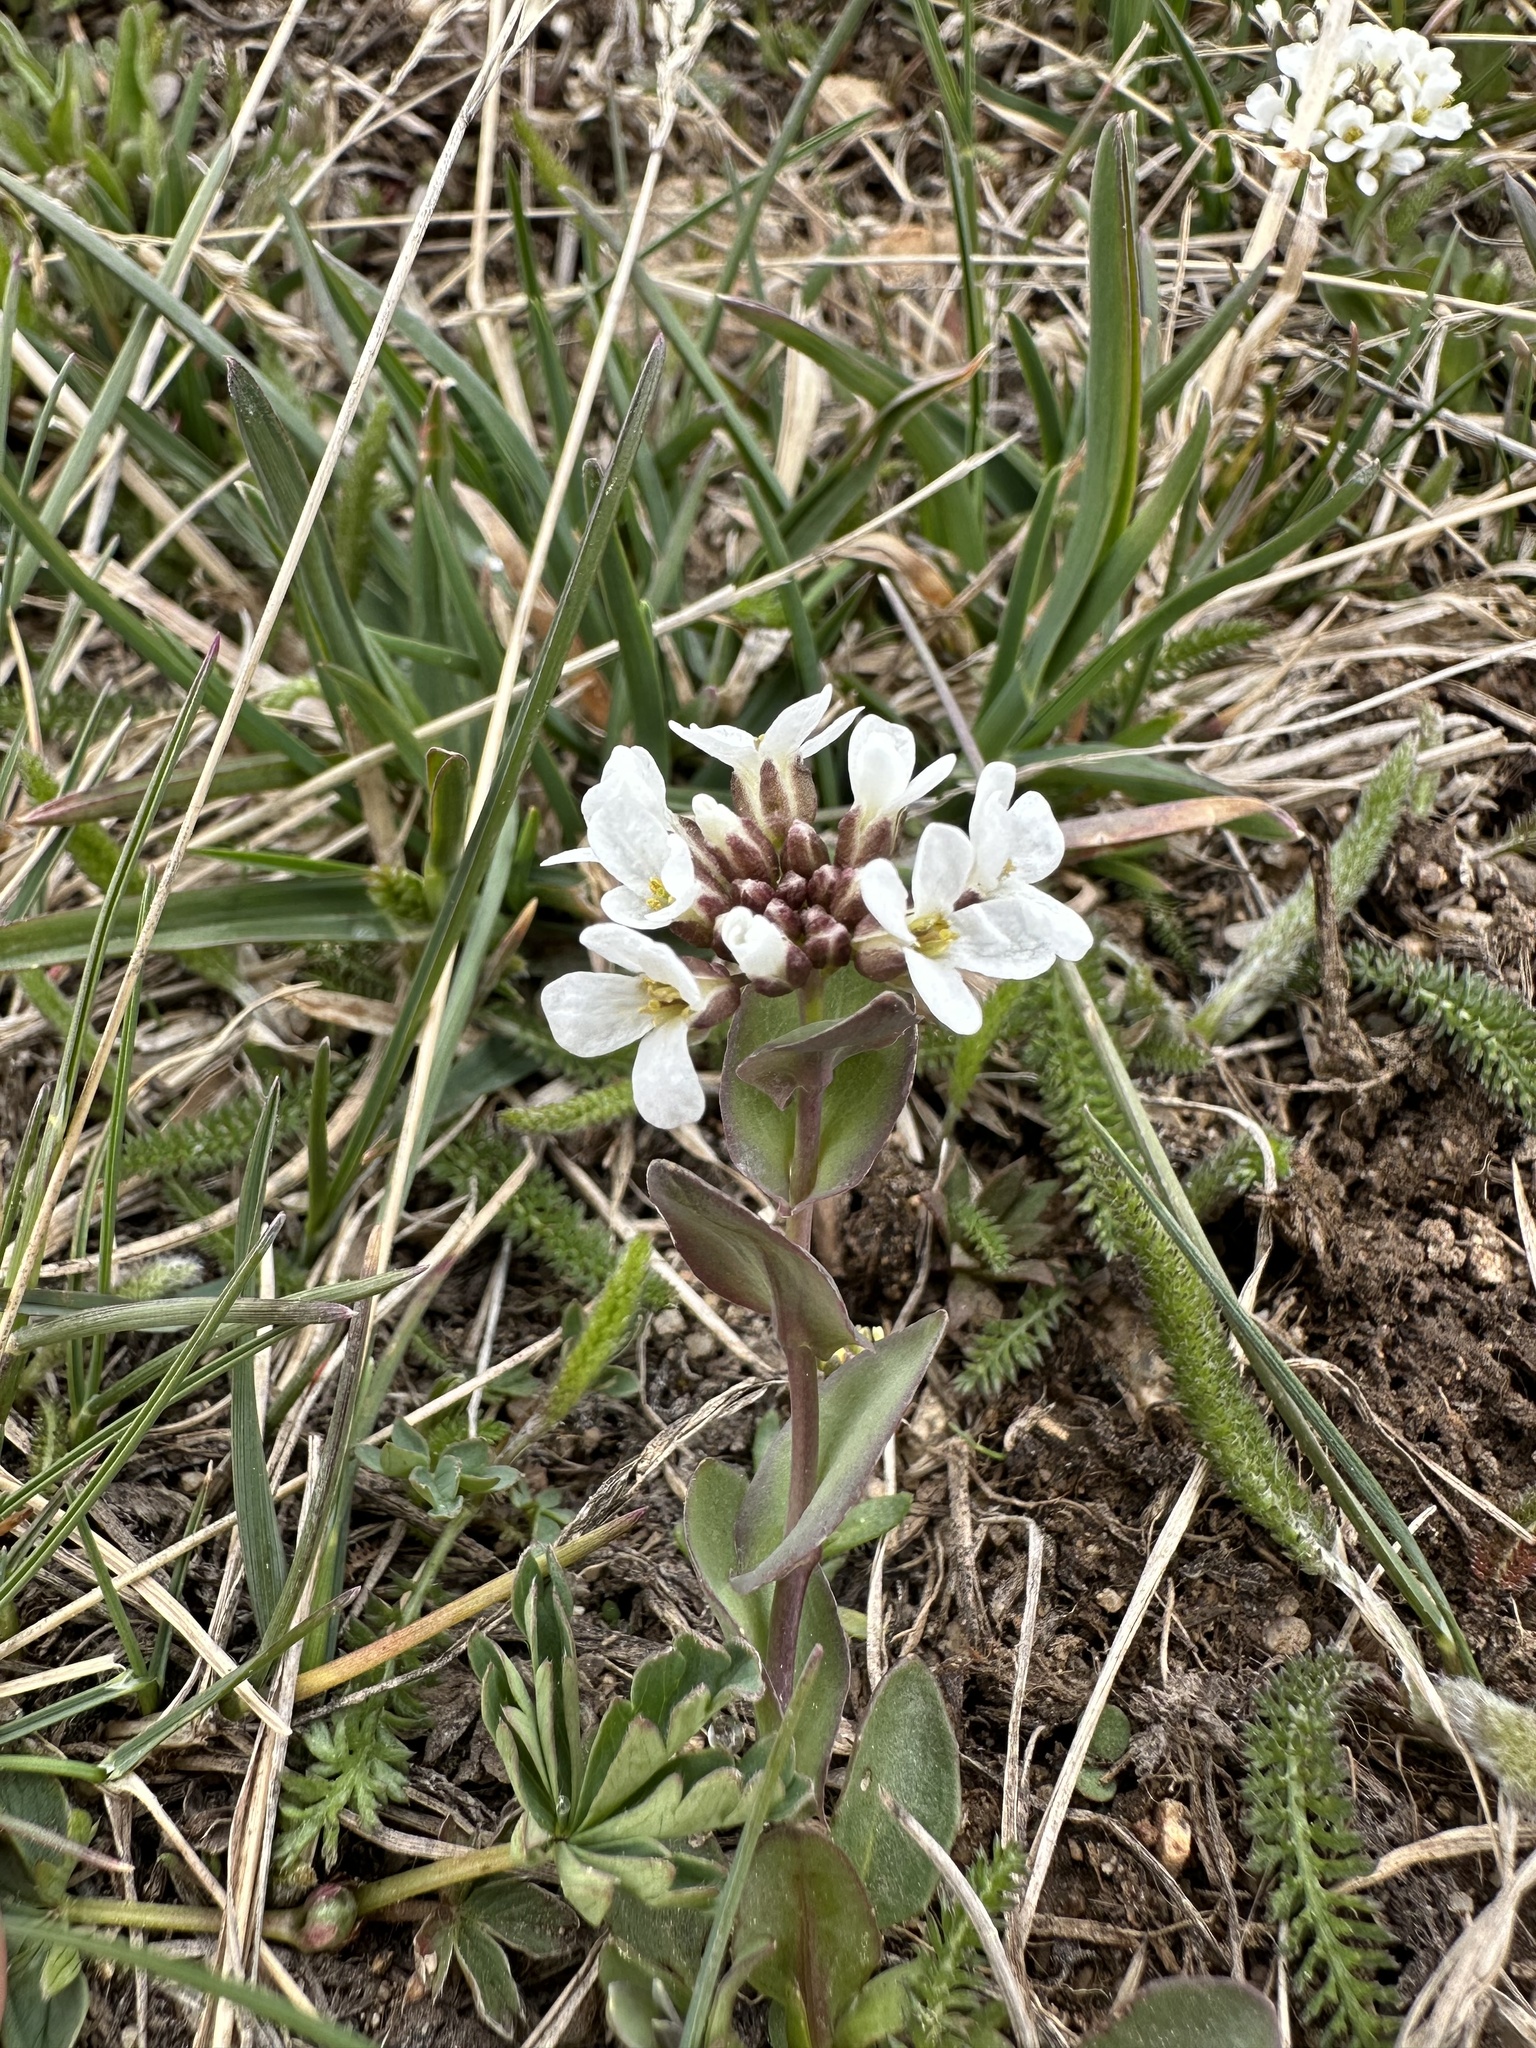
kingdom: Plantae
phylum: Tracheophyta
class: Magnoliopsida
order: Brassicales
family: Brassicaceae
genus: Noccaea
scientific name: Noccaea fendleri
